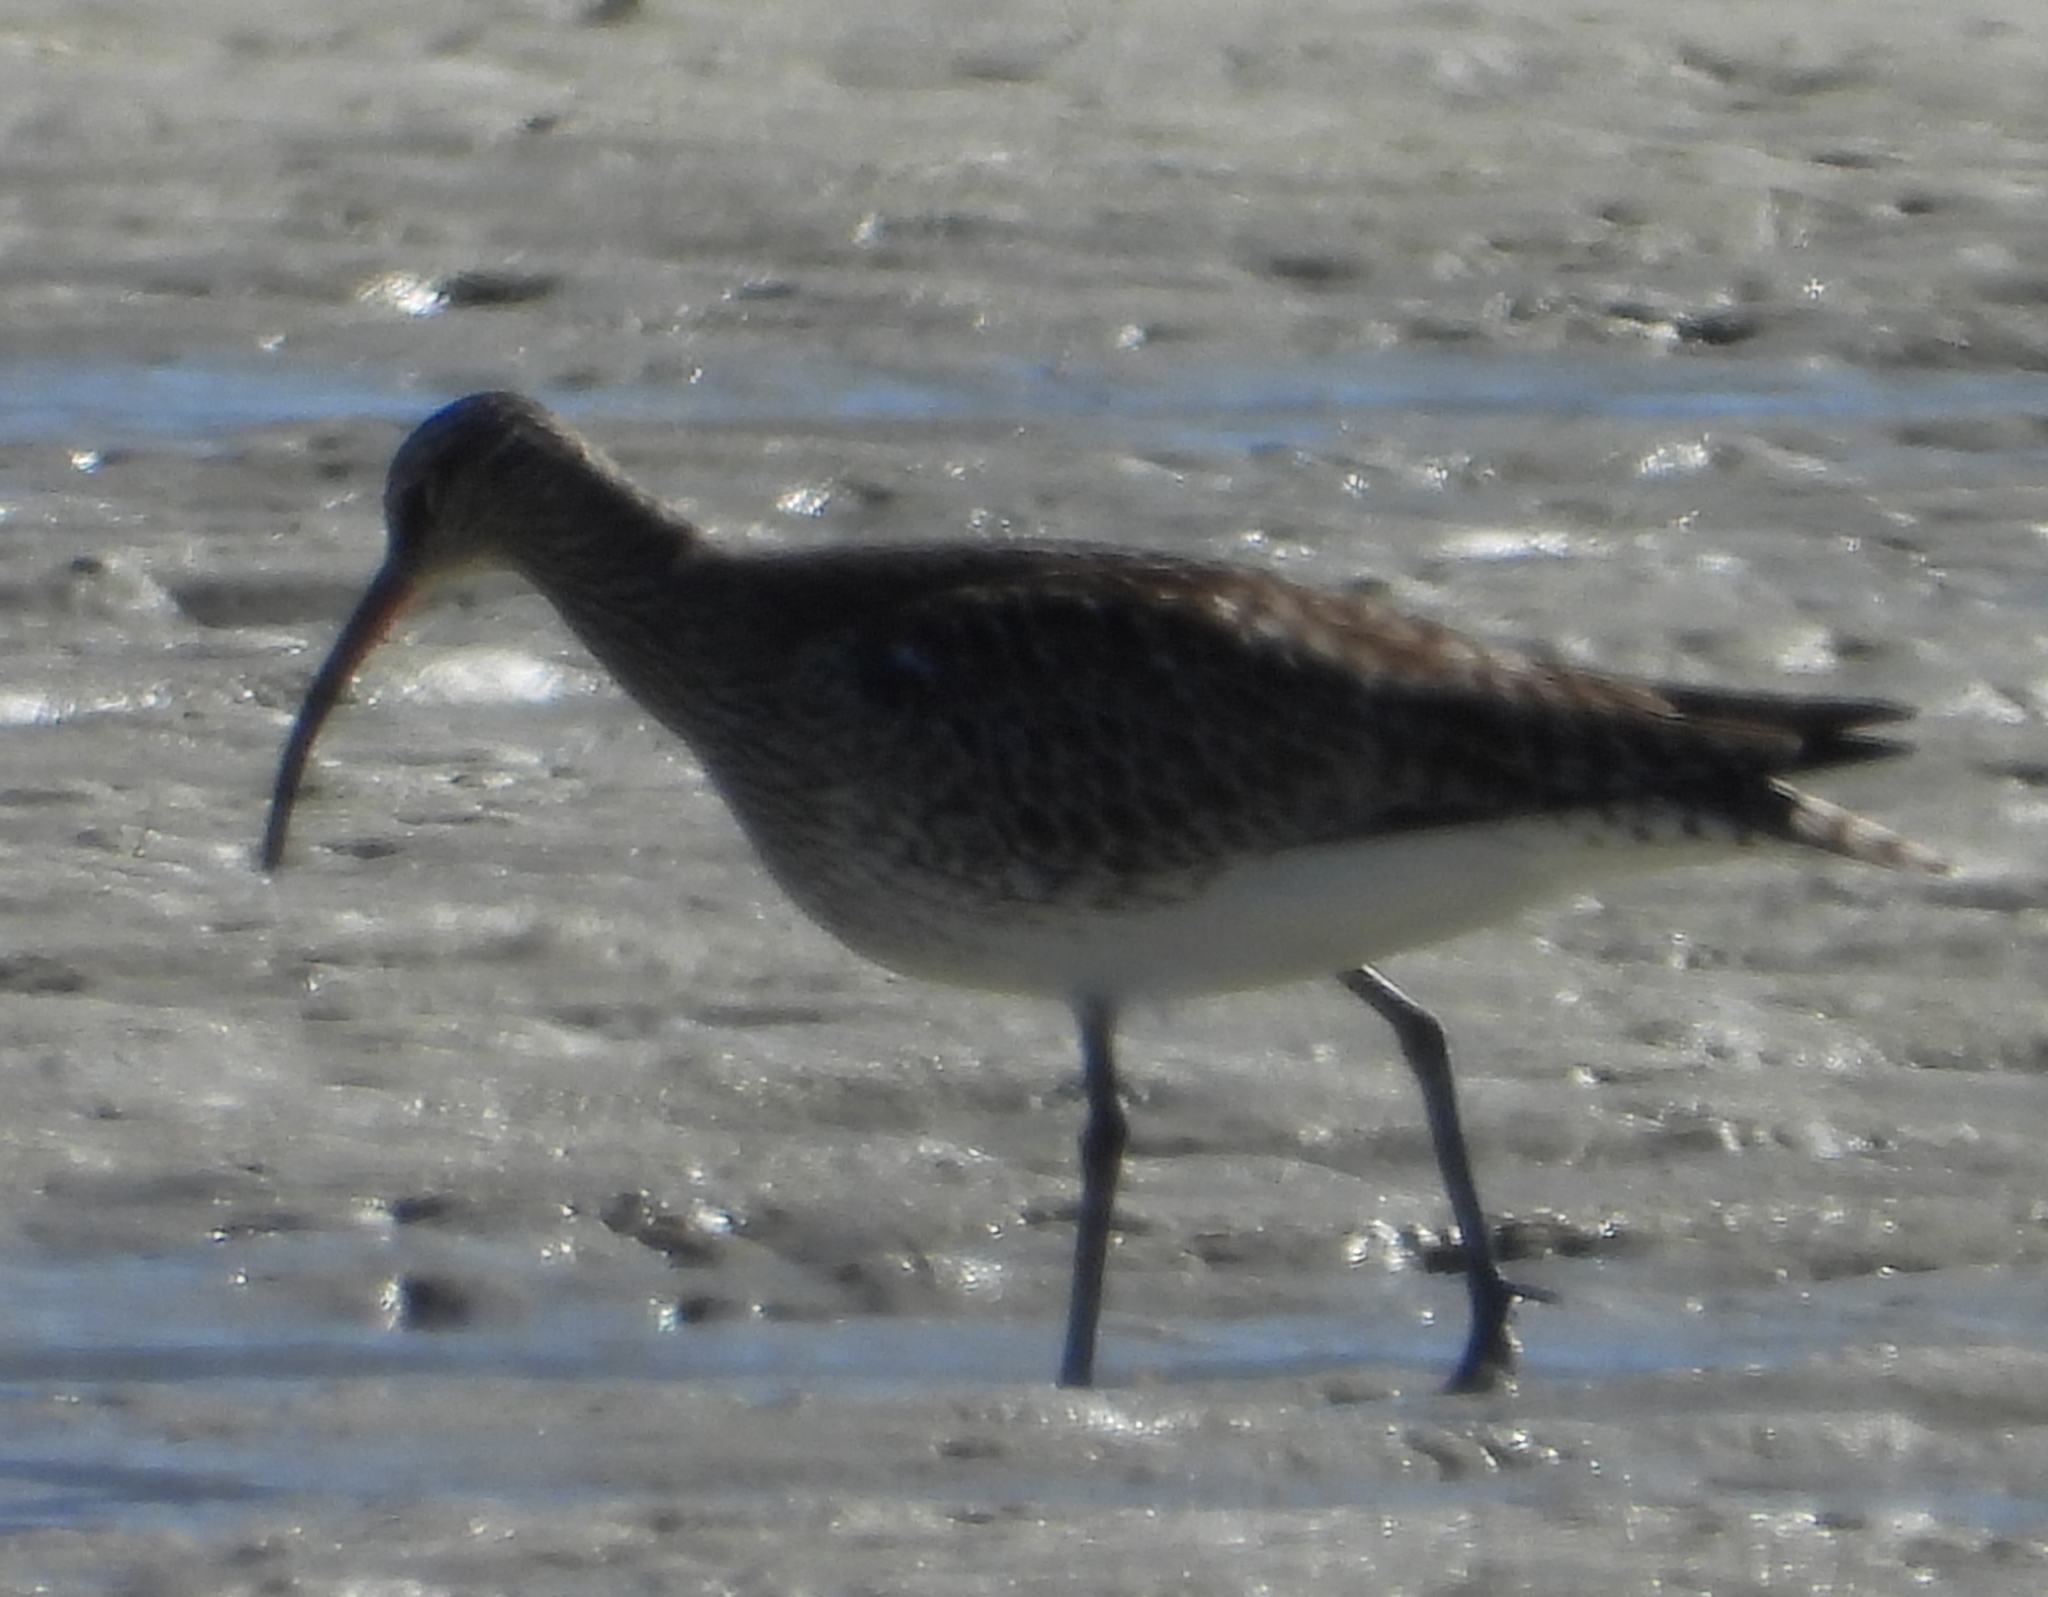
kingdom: Animalia
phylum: Chordata
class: Aves
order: Charadriiformes
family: Scolopacidae
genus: Numenius
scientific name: Numenius phaeopus
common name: Whimbrel
